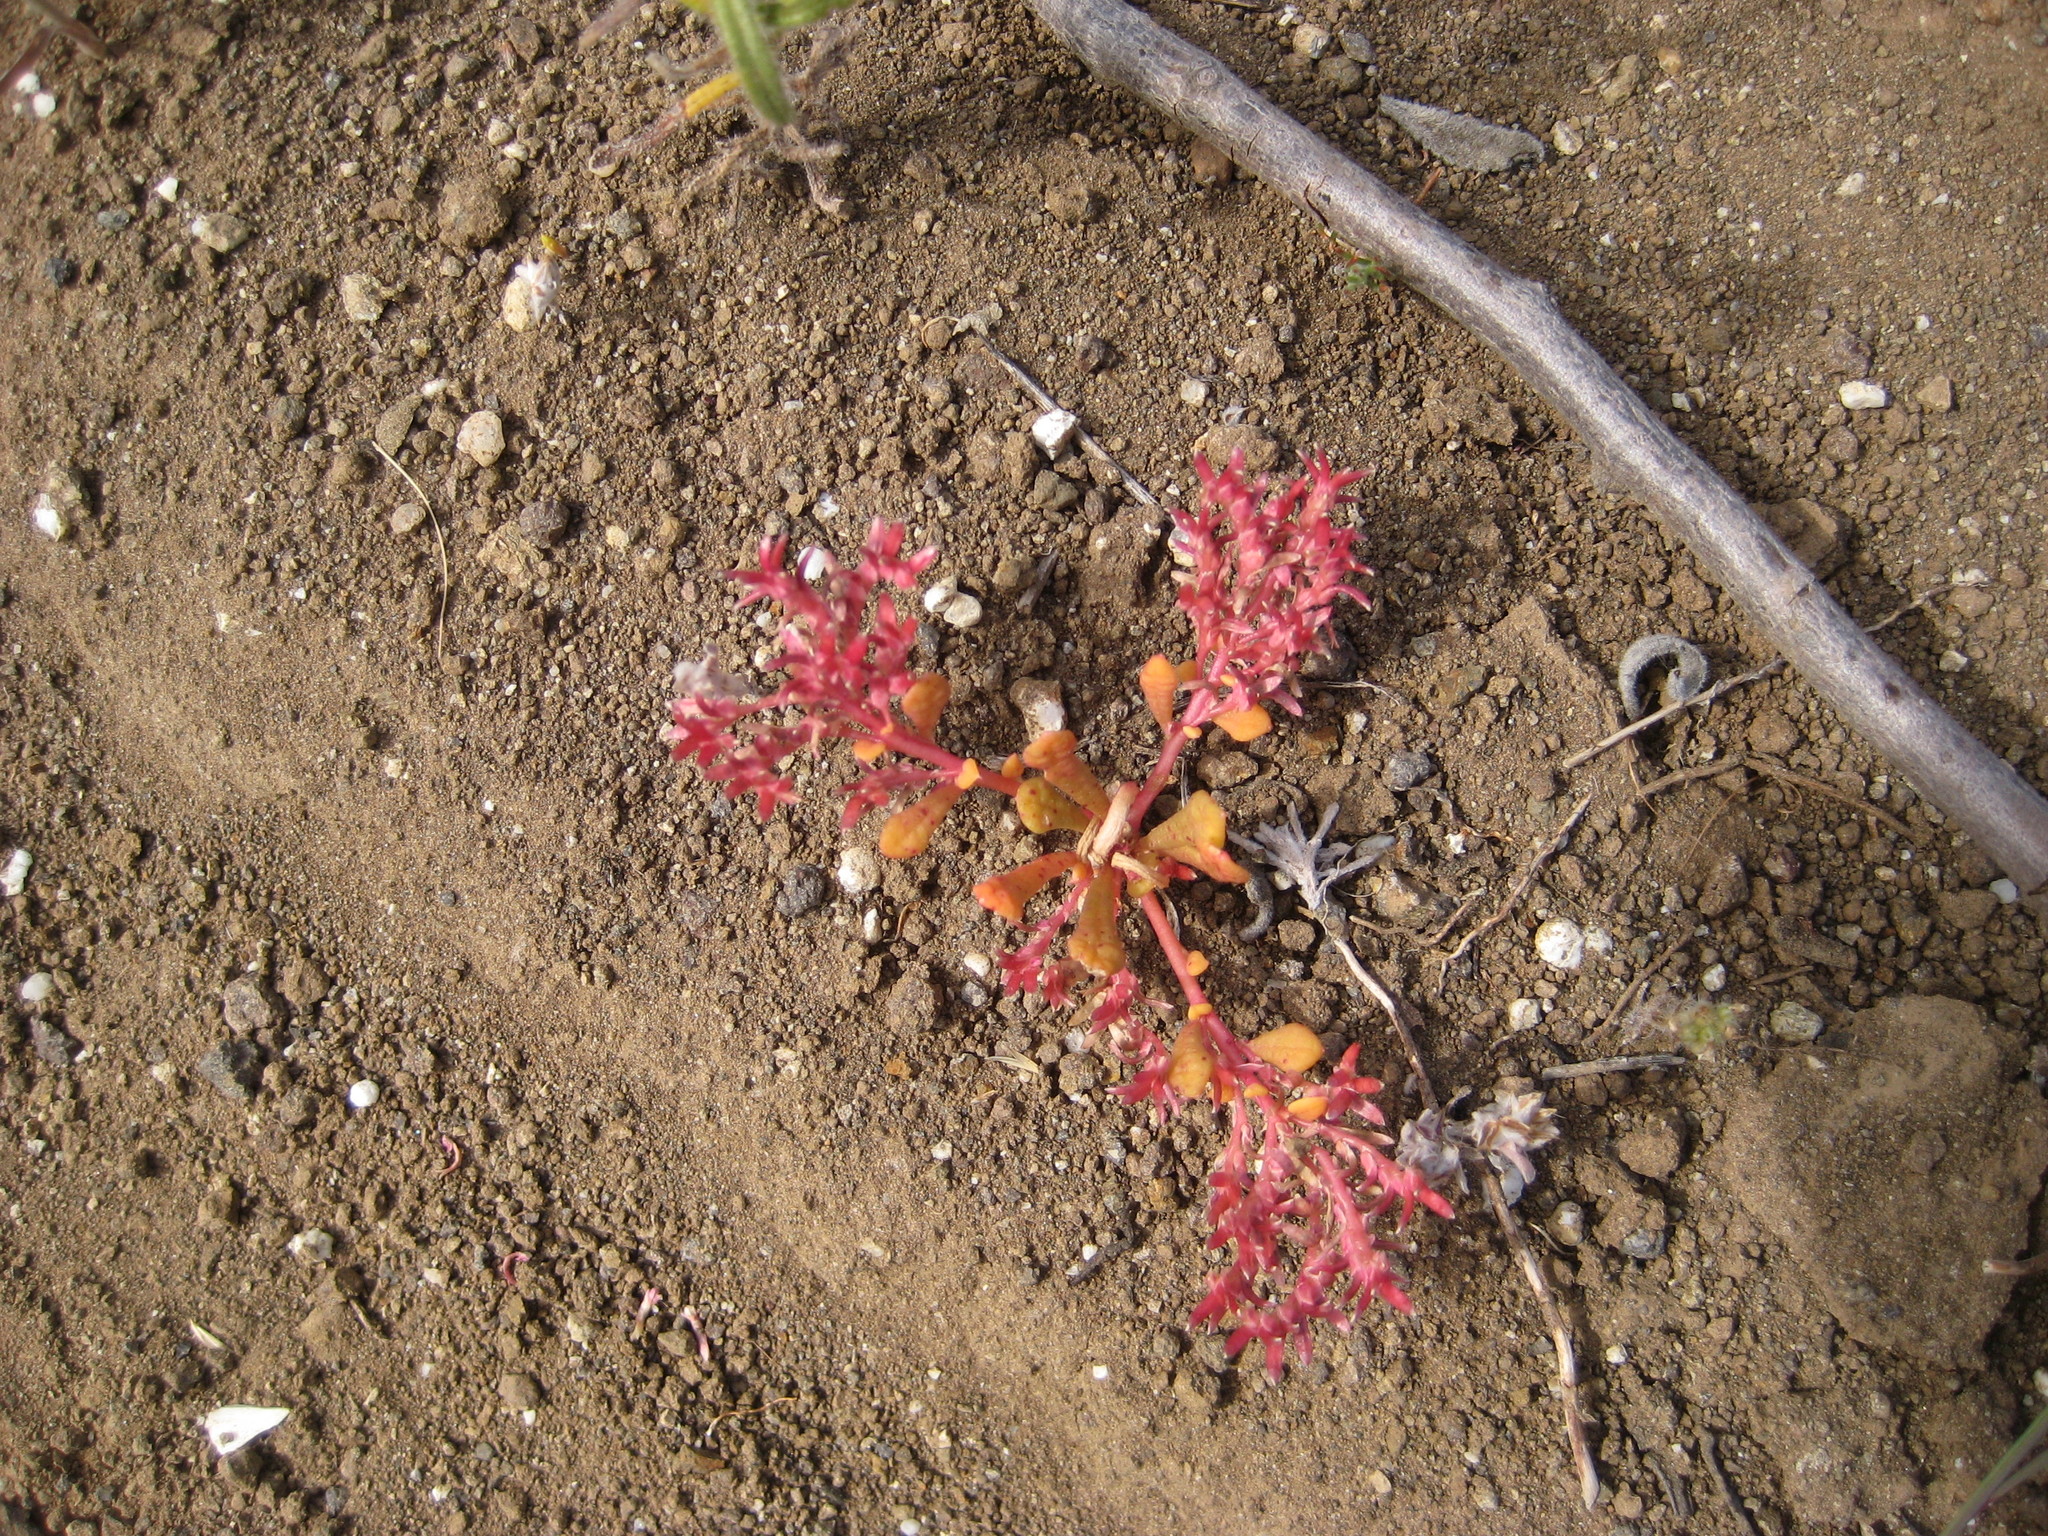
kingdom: Plantae
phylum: Tracheophyta
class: Magnoliopsida
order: Caryophyllales
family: Montiaceae
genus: Calyptridium
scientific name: Calyptridium monandrum
